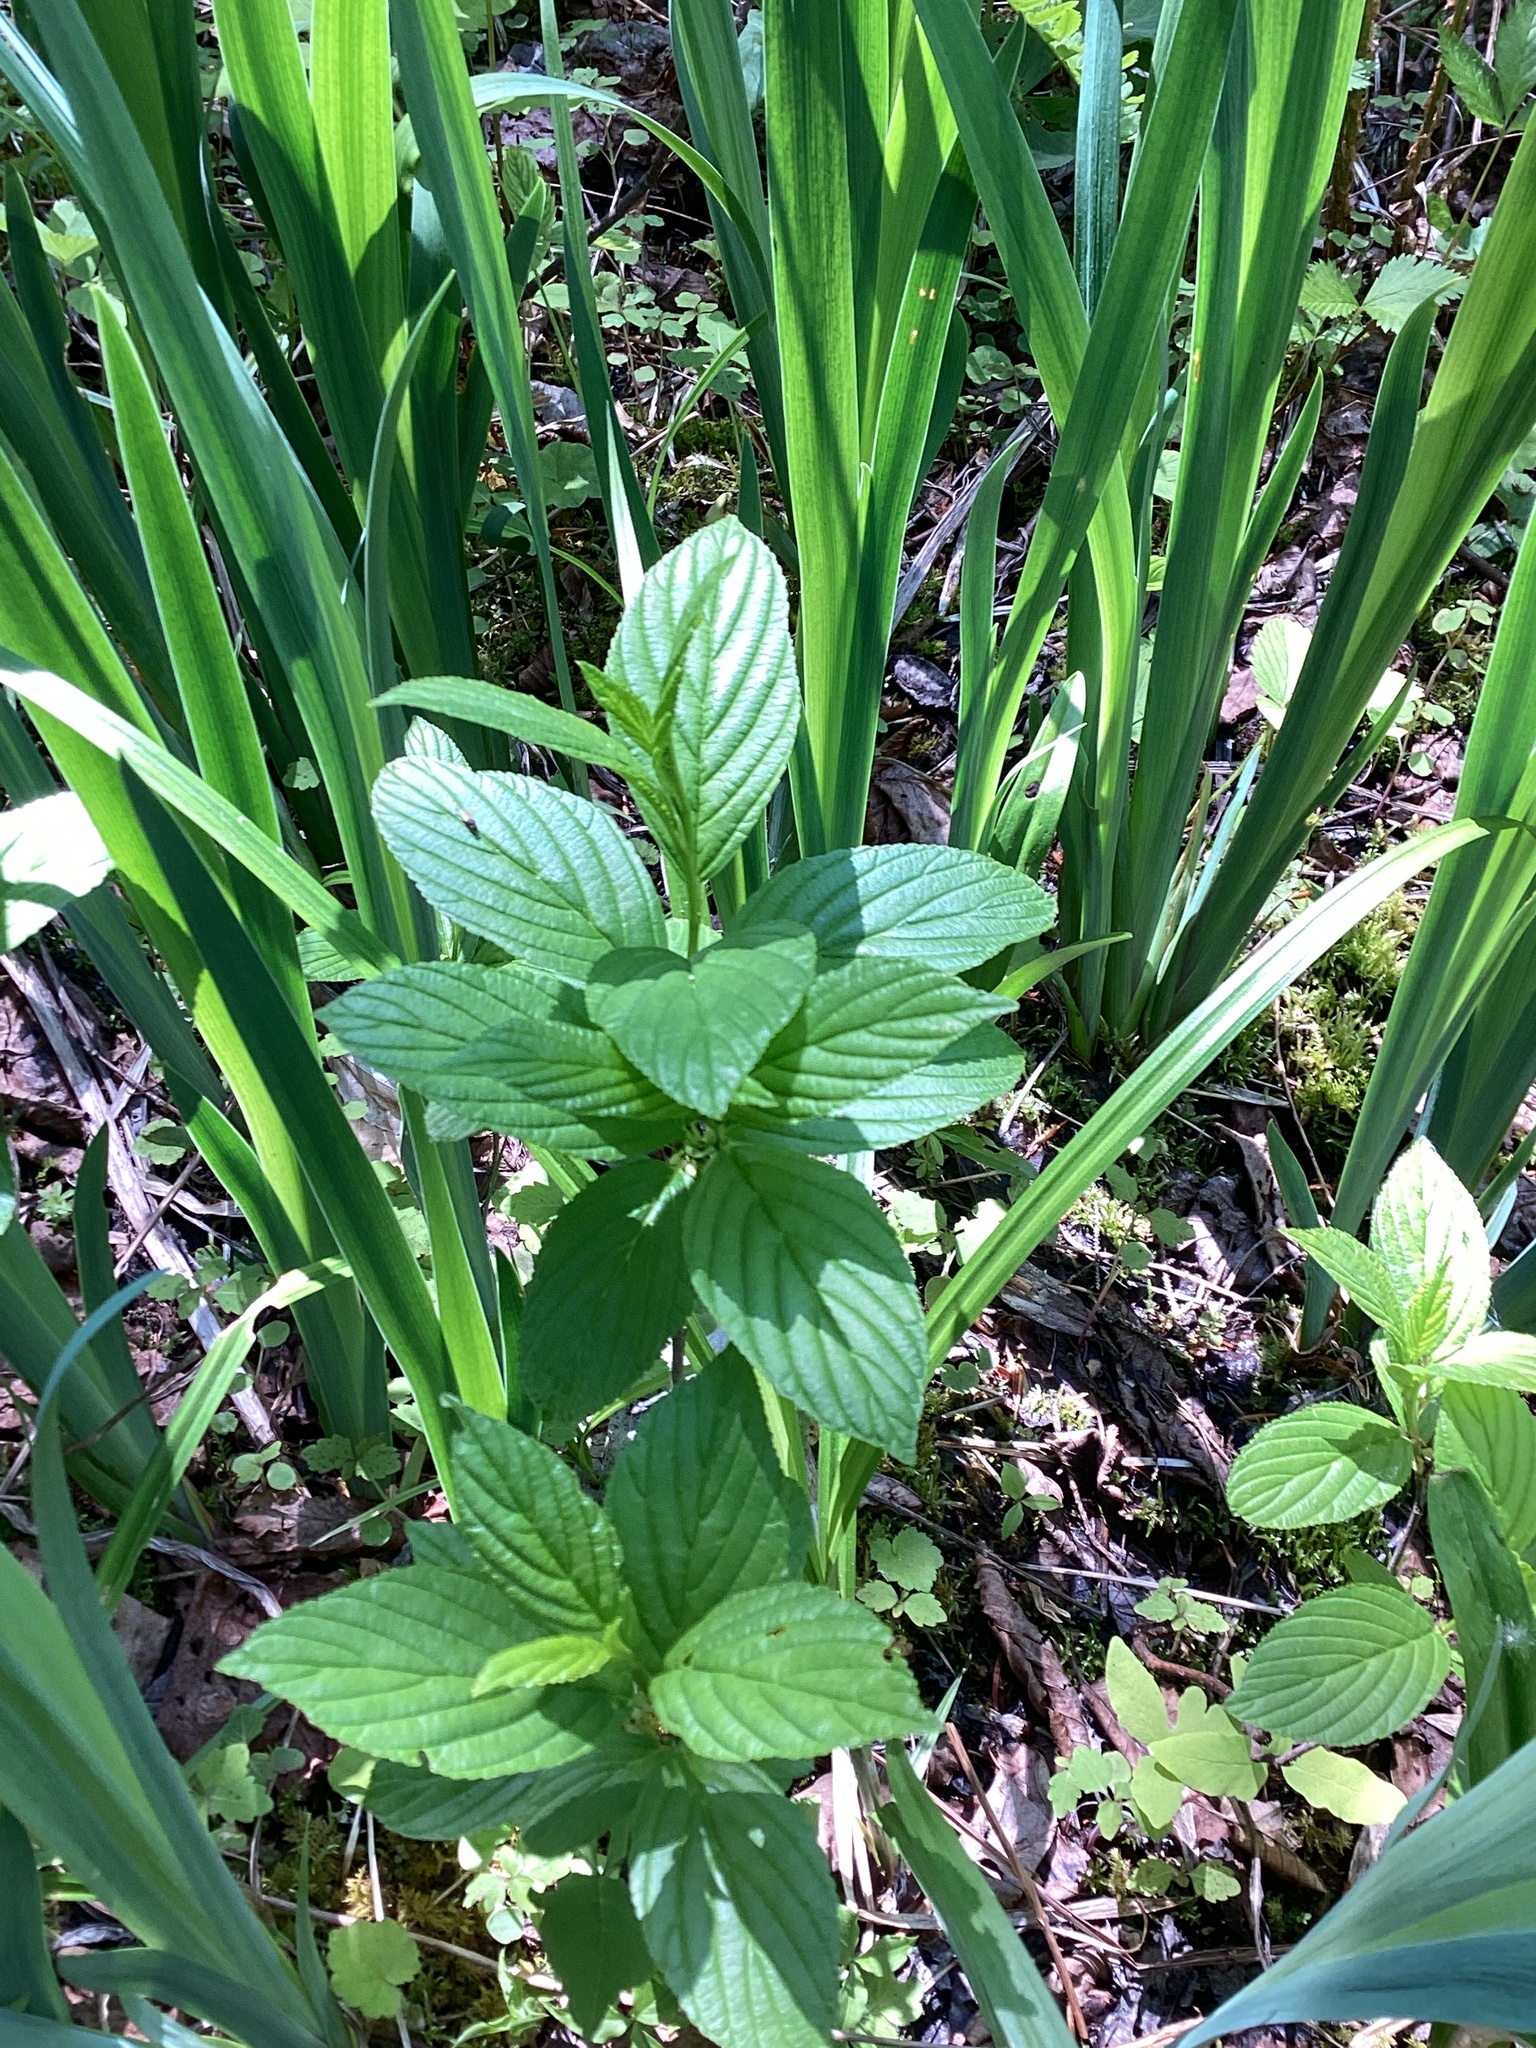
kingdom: Plantae
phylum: Tracheophyta
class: Magnoliopsida
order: Rosales
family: Rhamnaceae
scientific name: Rhamnaceae
